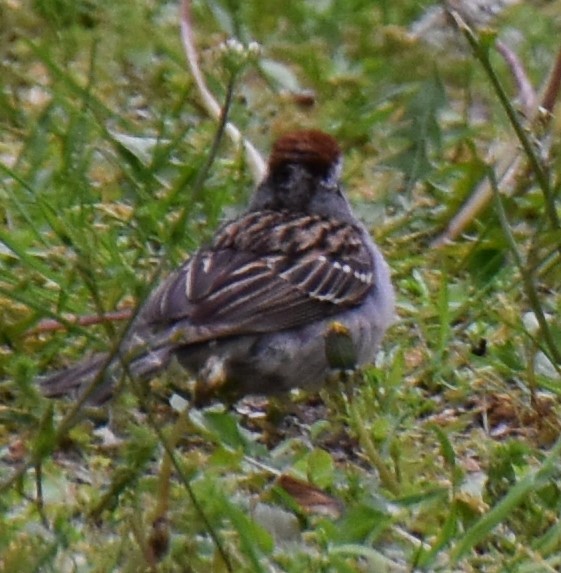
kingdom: Animalia
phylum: Chordata
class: Aves
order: Passeriformes
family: Passerellidae
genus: Spizella
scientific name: Spizella passerina
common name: Chipping sparrow
